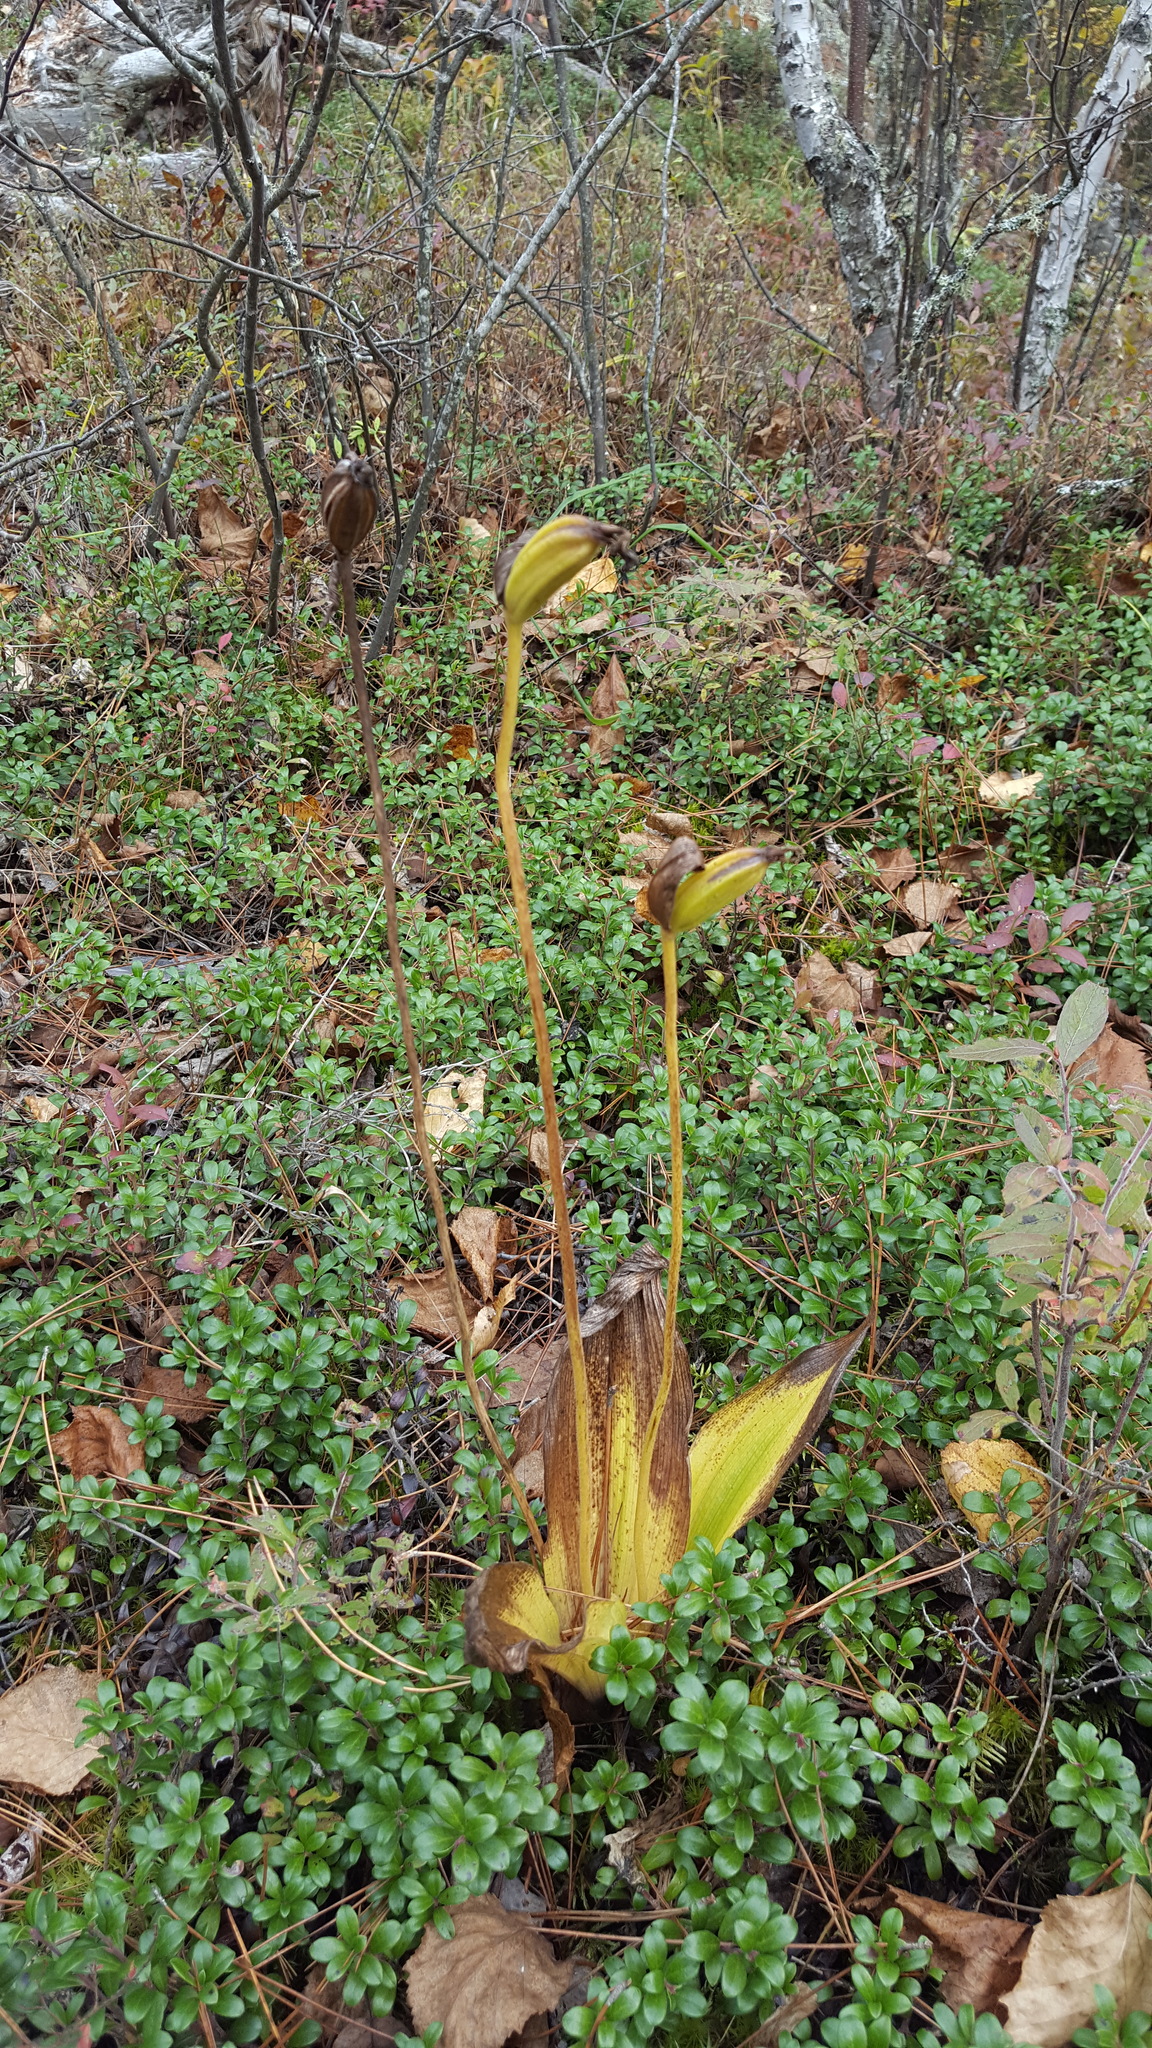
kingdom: Plantae
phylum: Tracheophyta
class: Liliopsida
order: Asparagales
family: Orchidaceae
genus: Cypripedium
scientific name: Cypripedium acaule
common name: Pink lady's-slipper
